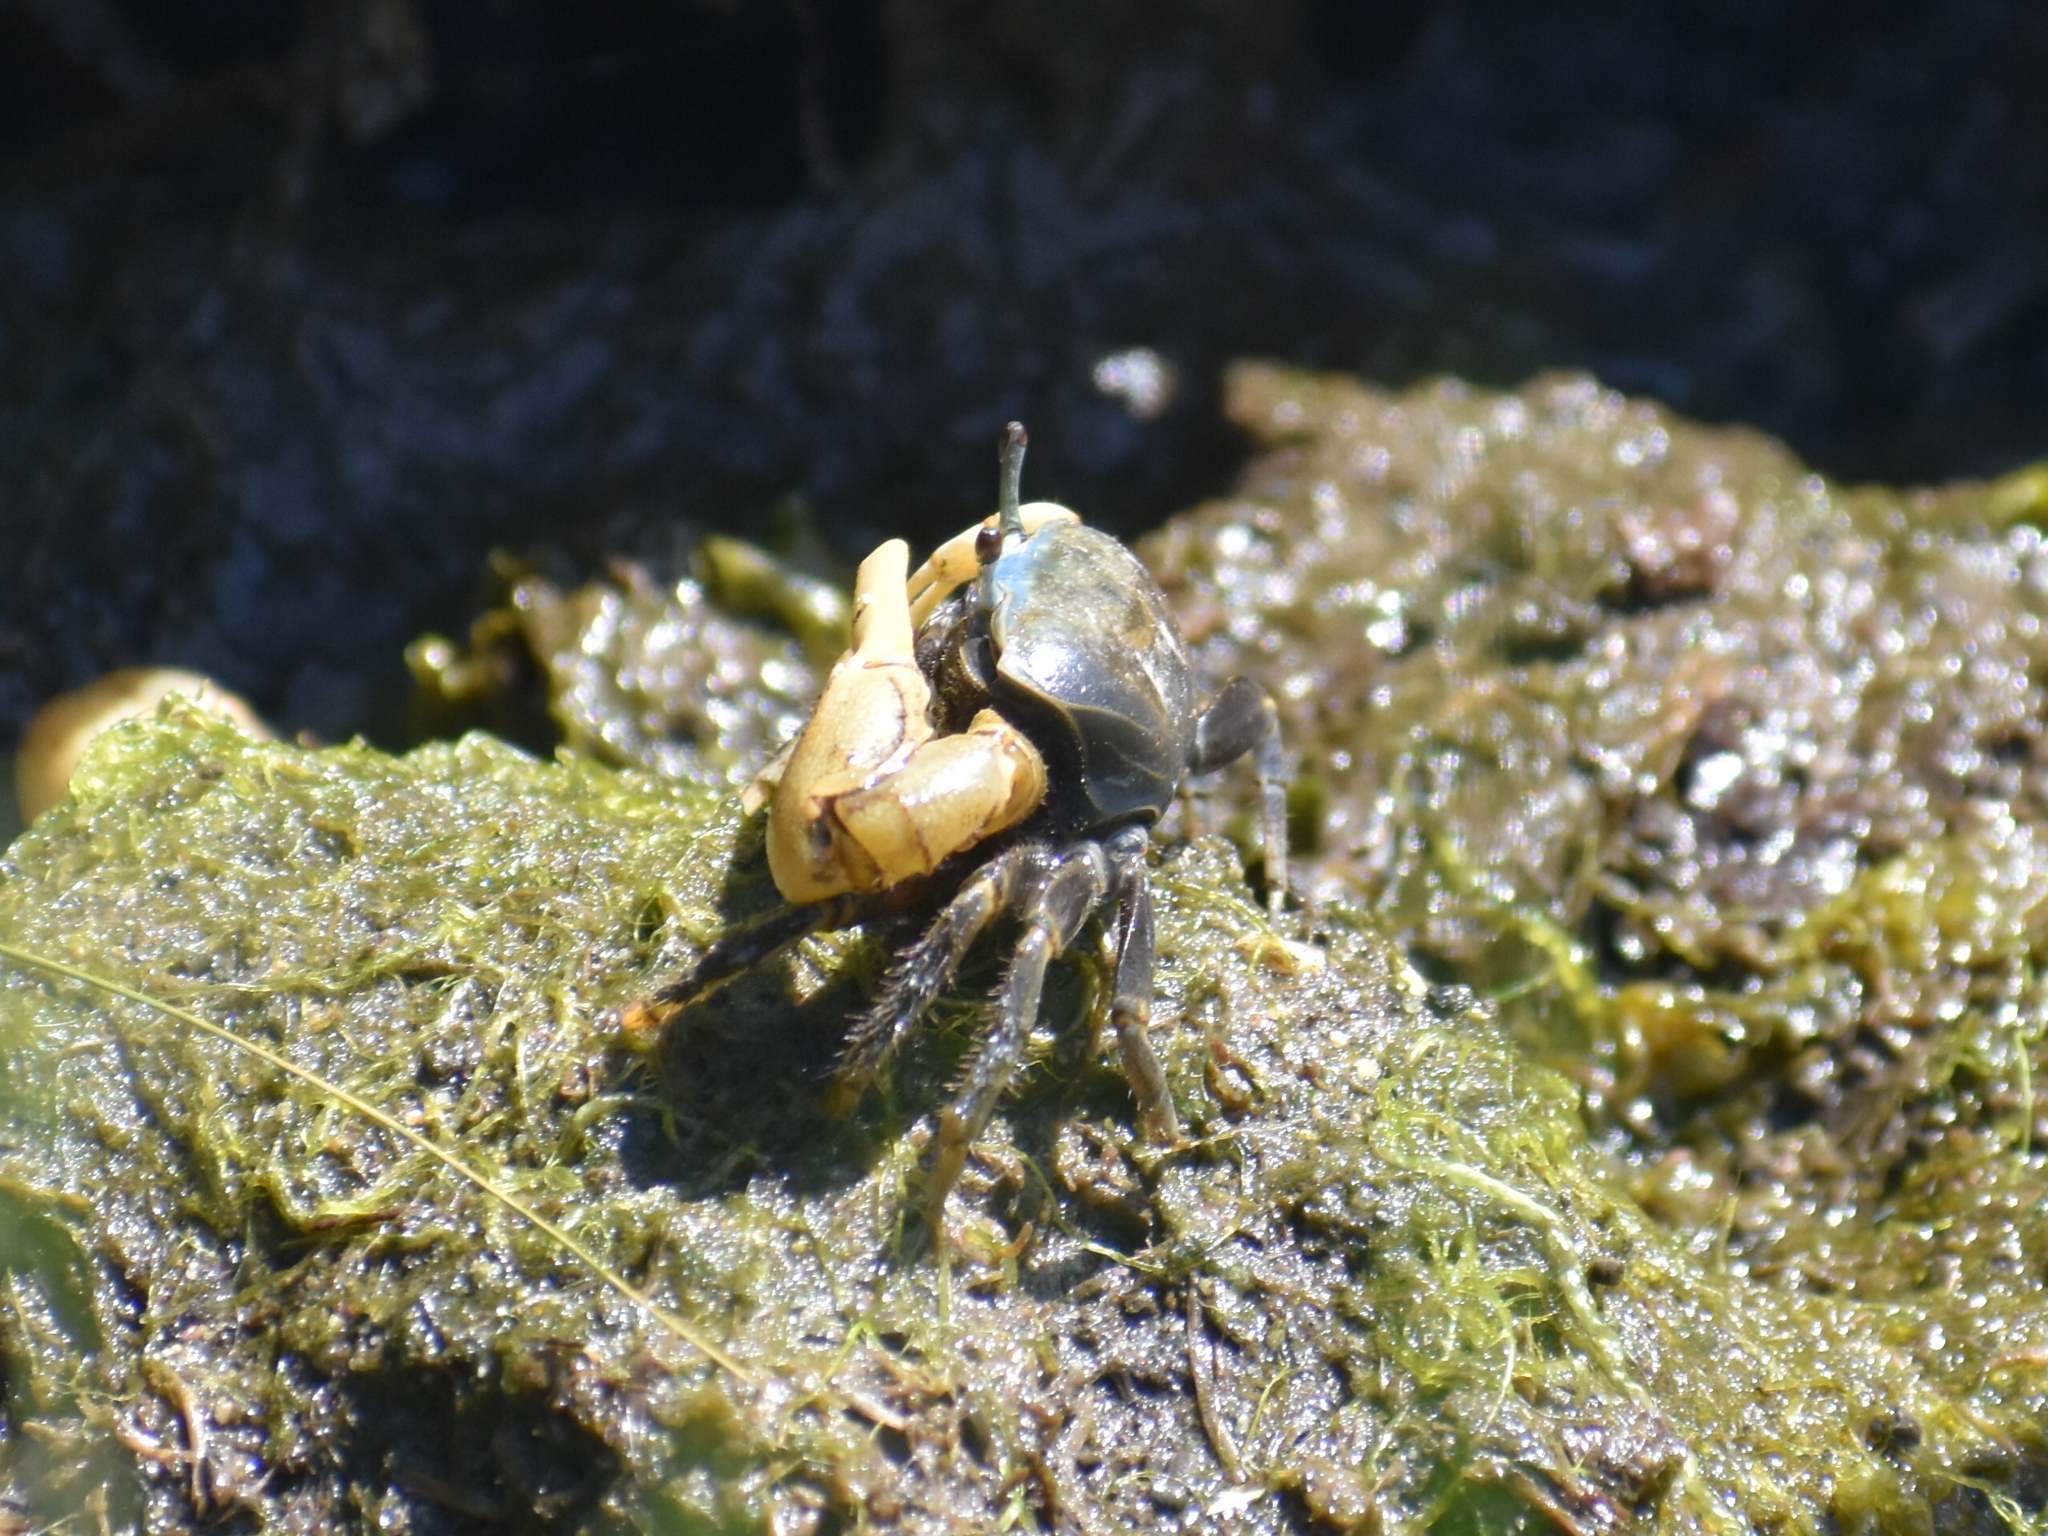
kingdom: Animalia
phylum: Arthropoda
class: Malacostraca
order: Decapoda
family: Ocypodidae
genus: Minuca
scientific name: Minuca pugnax
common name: Mud fiddler crab
